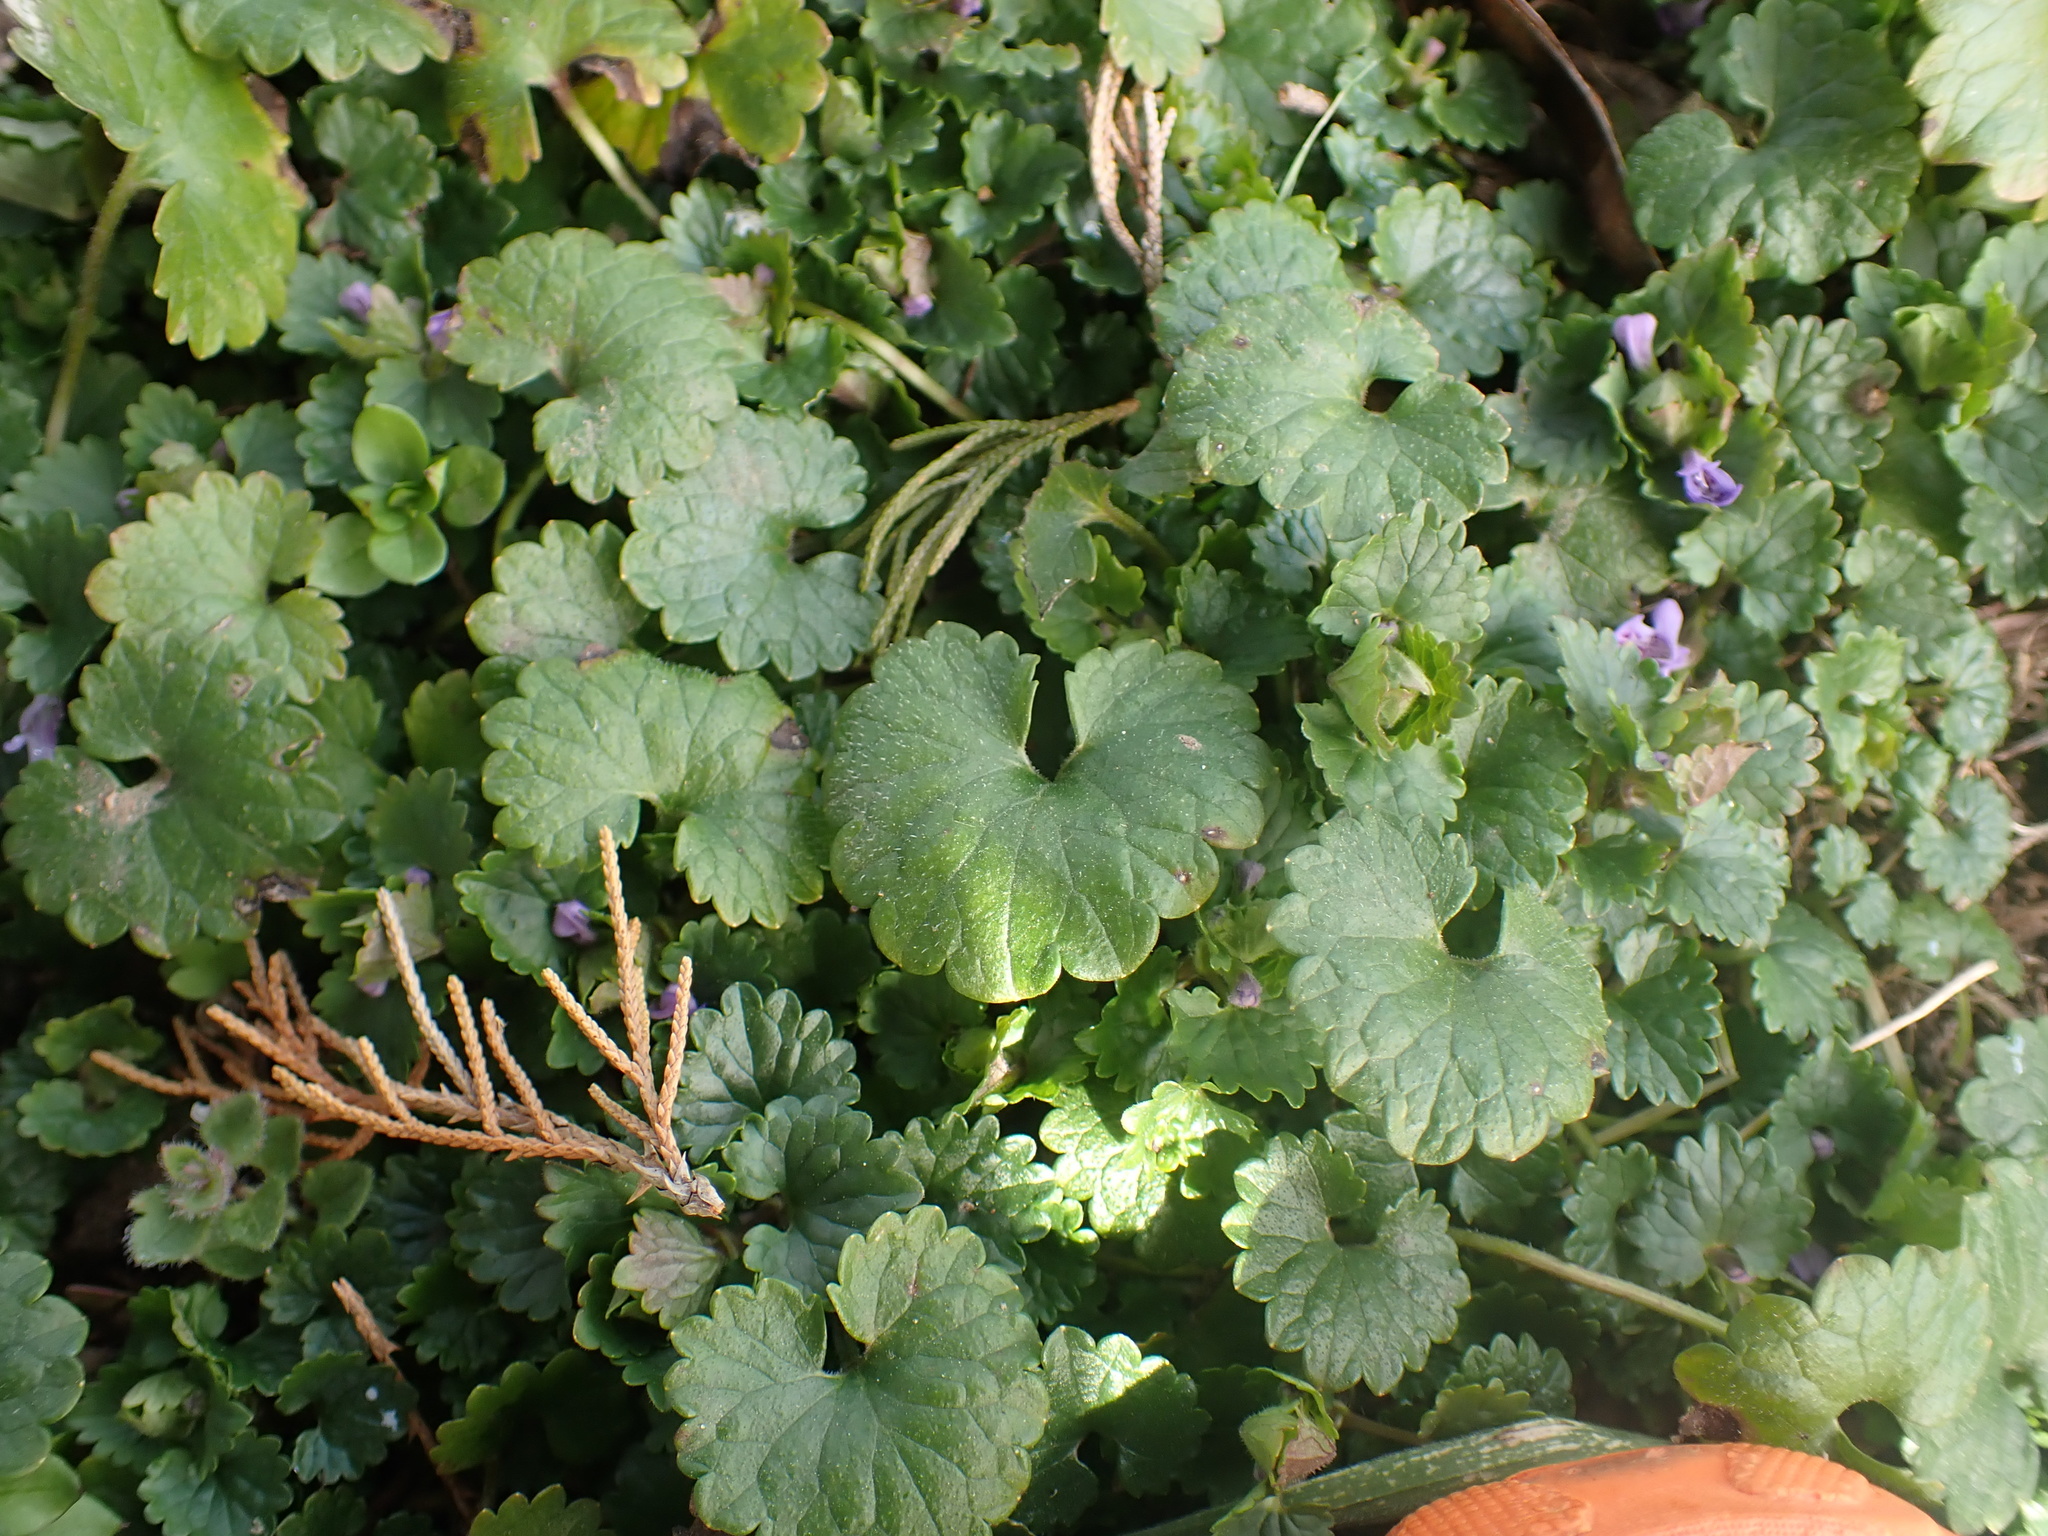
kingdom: Plantae
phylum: Tracheophyta
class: Magnoliopsida
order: Lamiales
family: Lamiaceae
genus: Glechoma
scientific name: Glechoma hederacea
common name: Ground ivy
